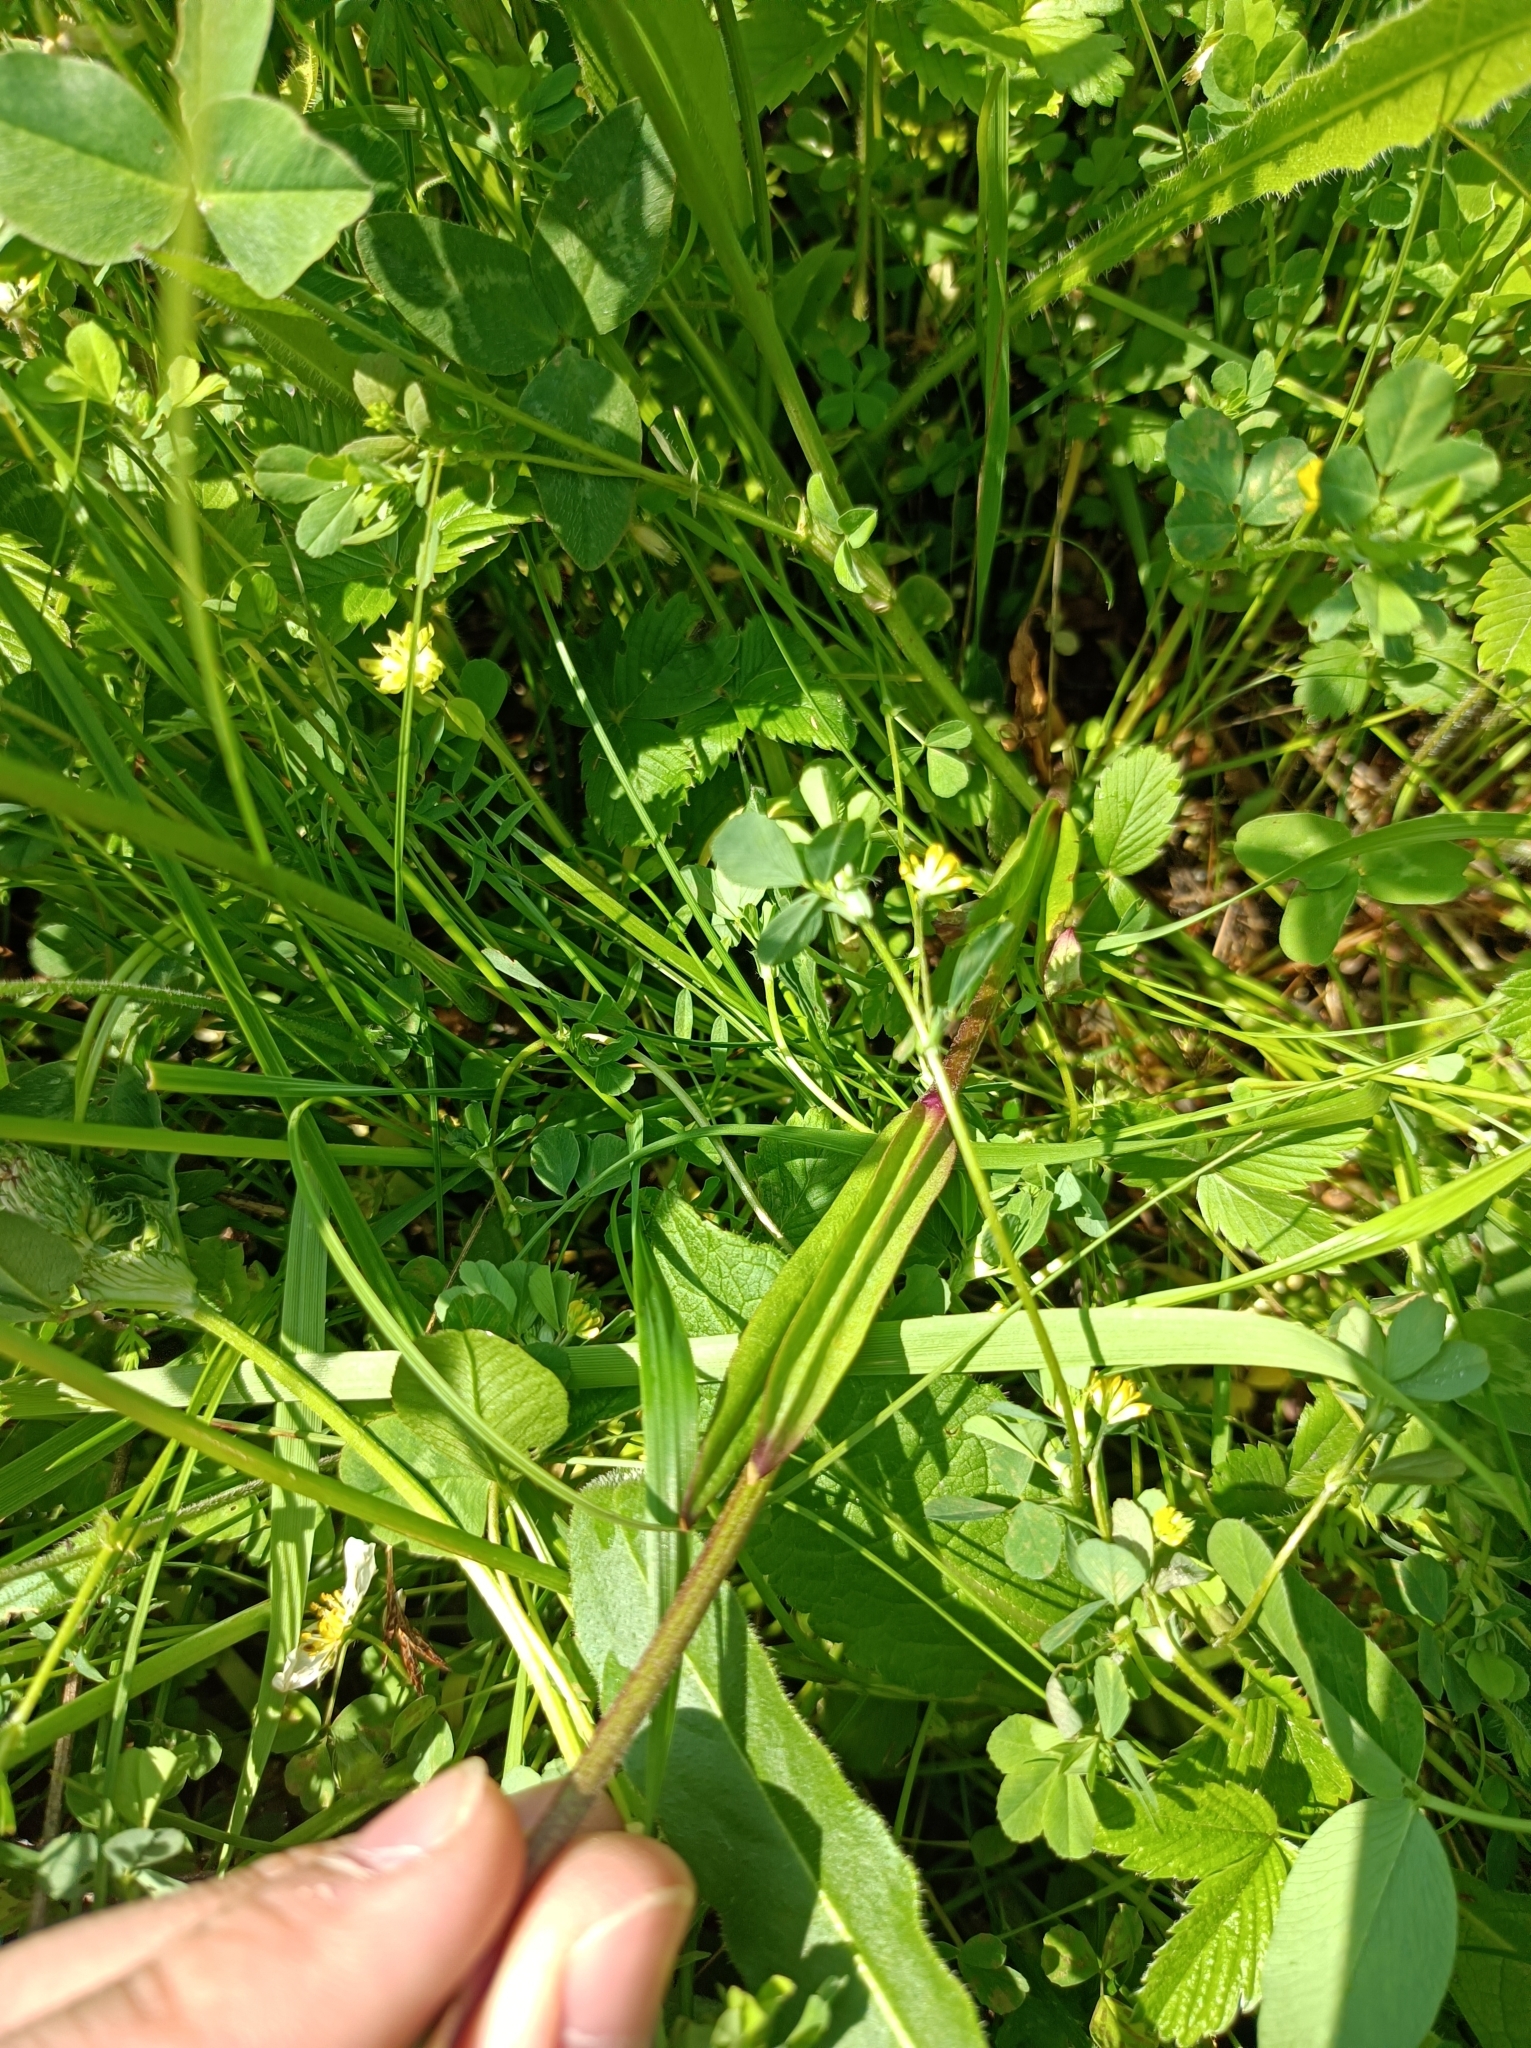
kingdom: Plantae
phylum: Tracheophyta
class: Magnoliopsida
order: Caryophyllales
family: Caryophyllaceae
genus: Silene
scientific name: Silene flos-cuculi
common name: Ragged-robin
